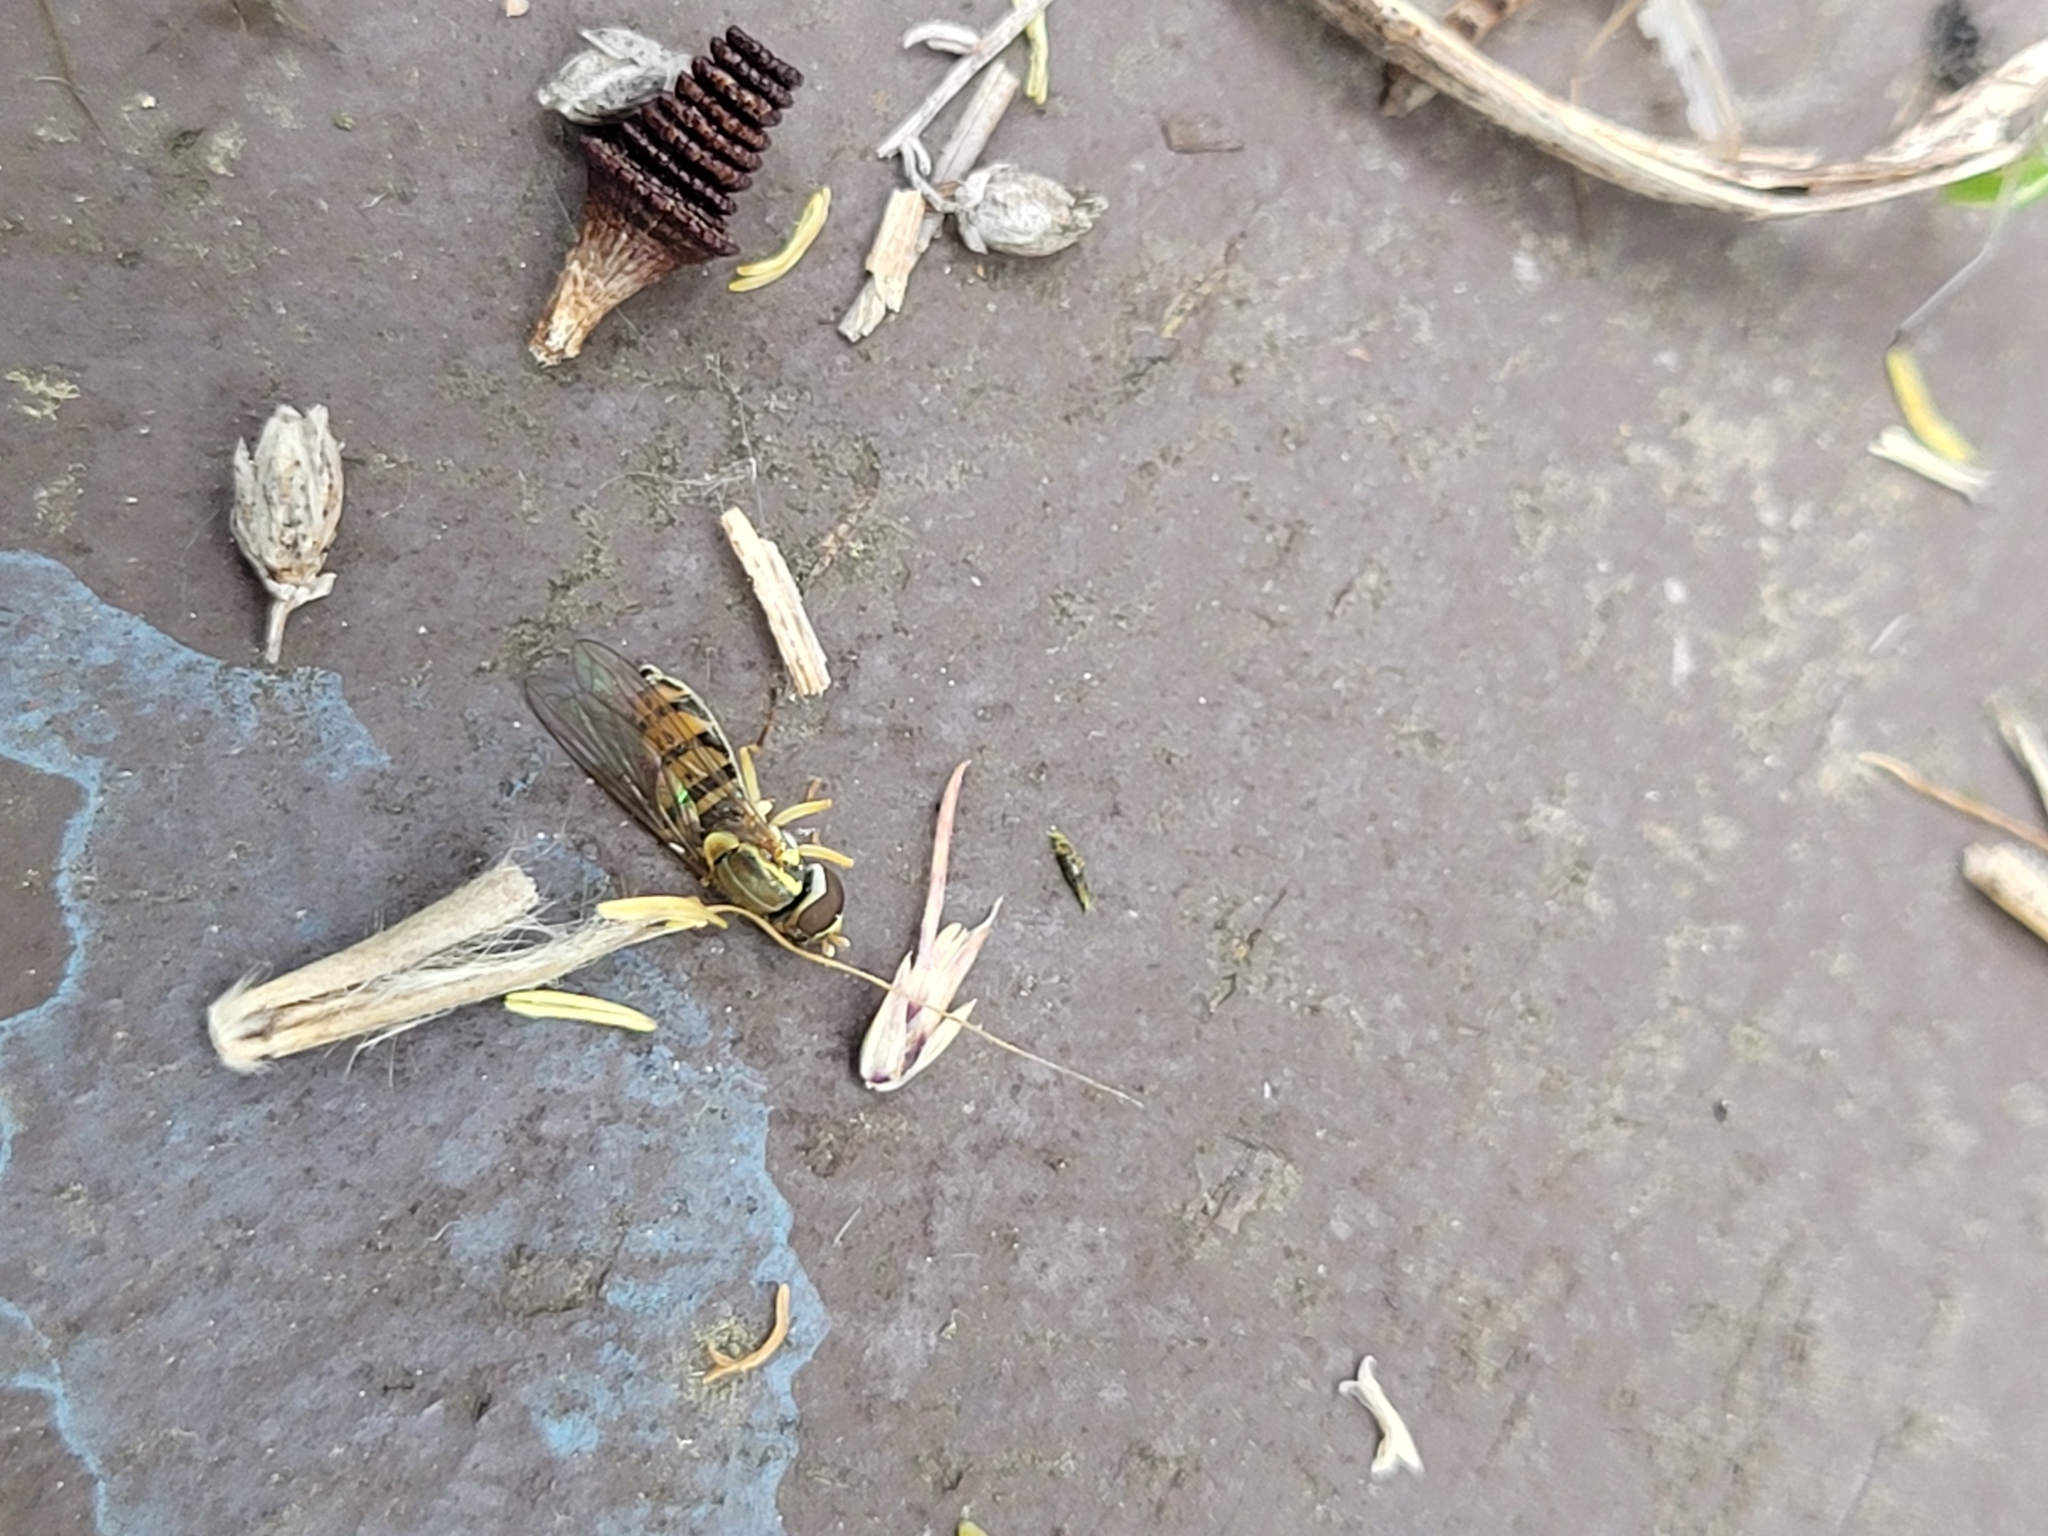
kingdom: Animalia
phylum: Arthropoda
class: Insecta
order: Diptera
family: Syrphidae
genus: Toxomerus
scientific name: Toxomerus marginatus
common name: Syrphid fly
